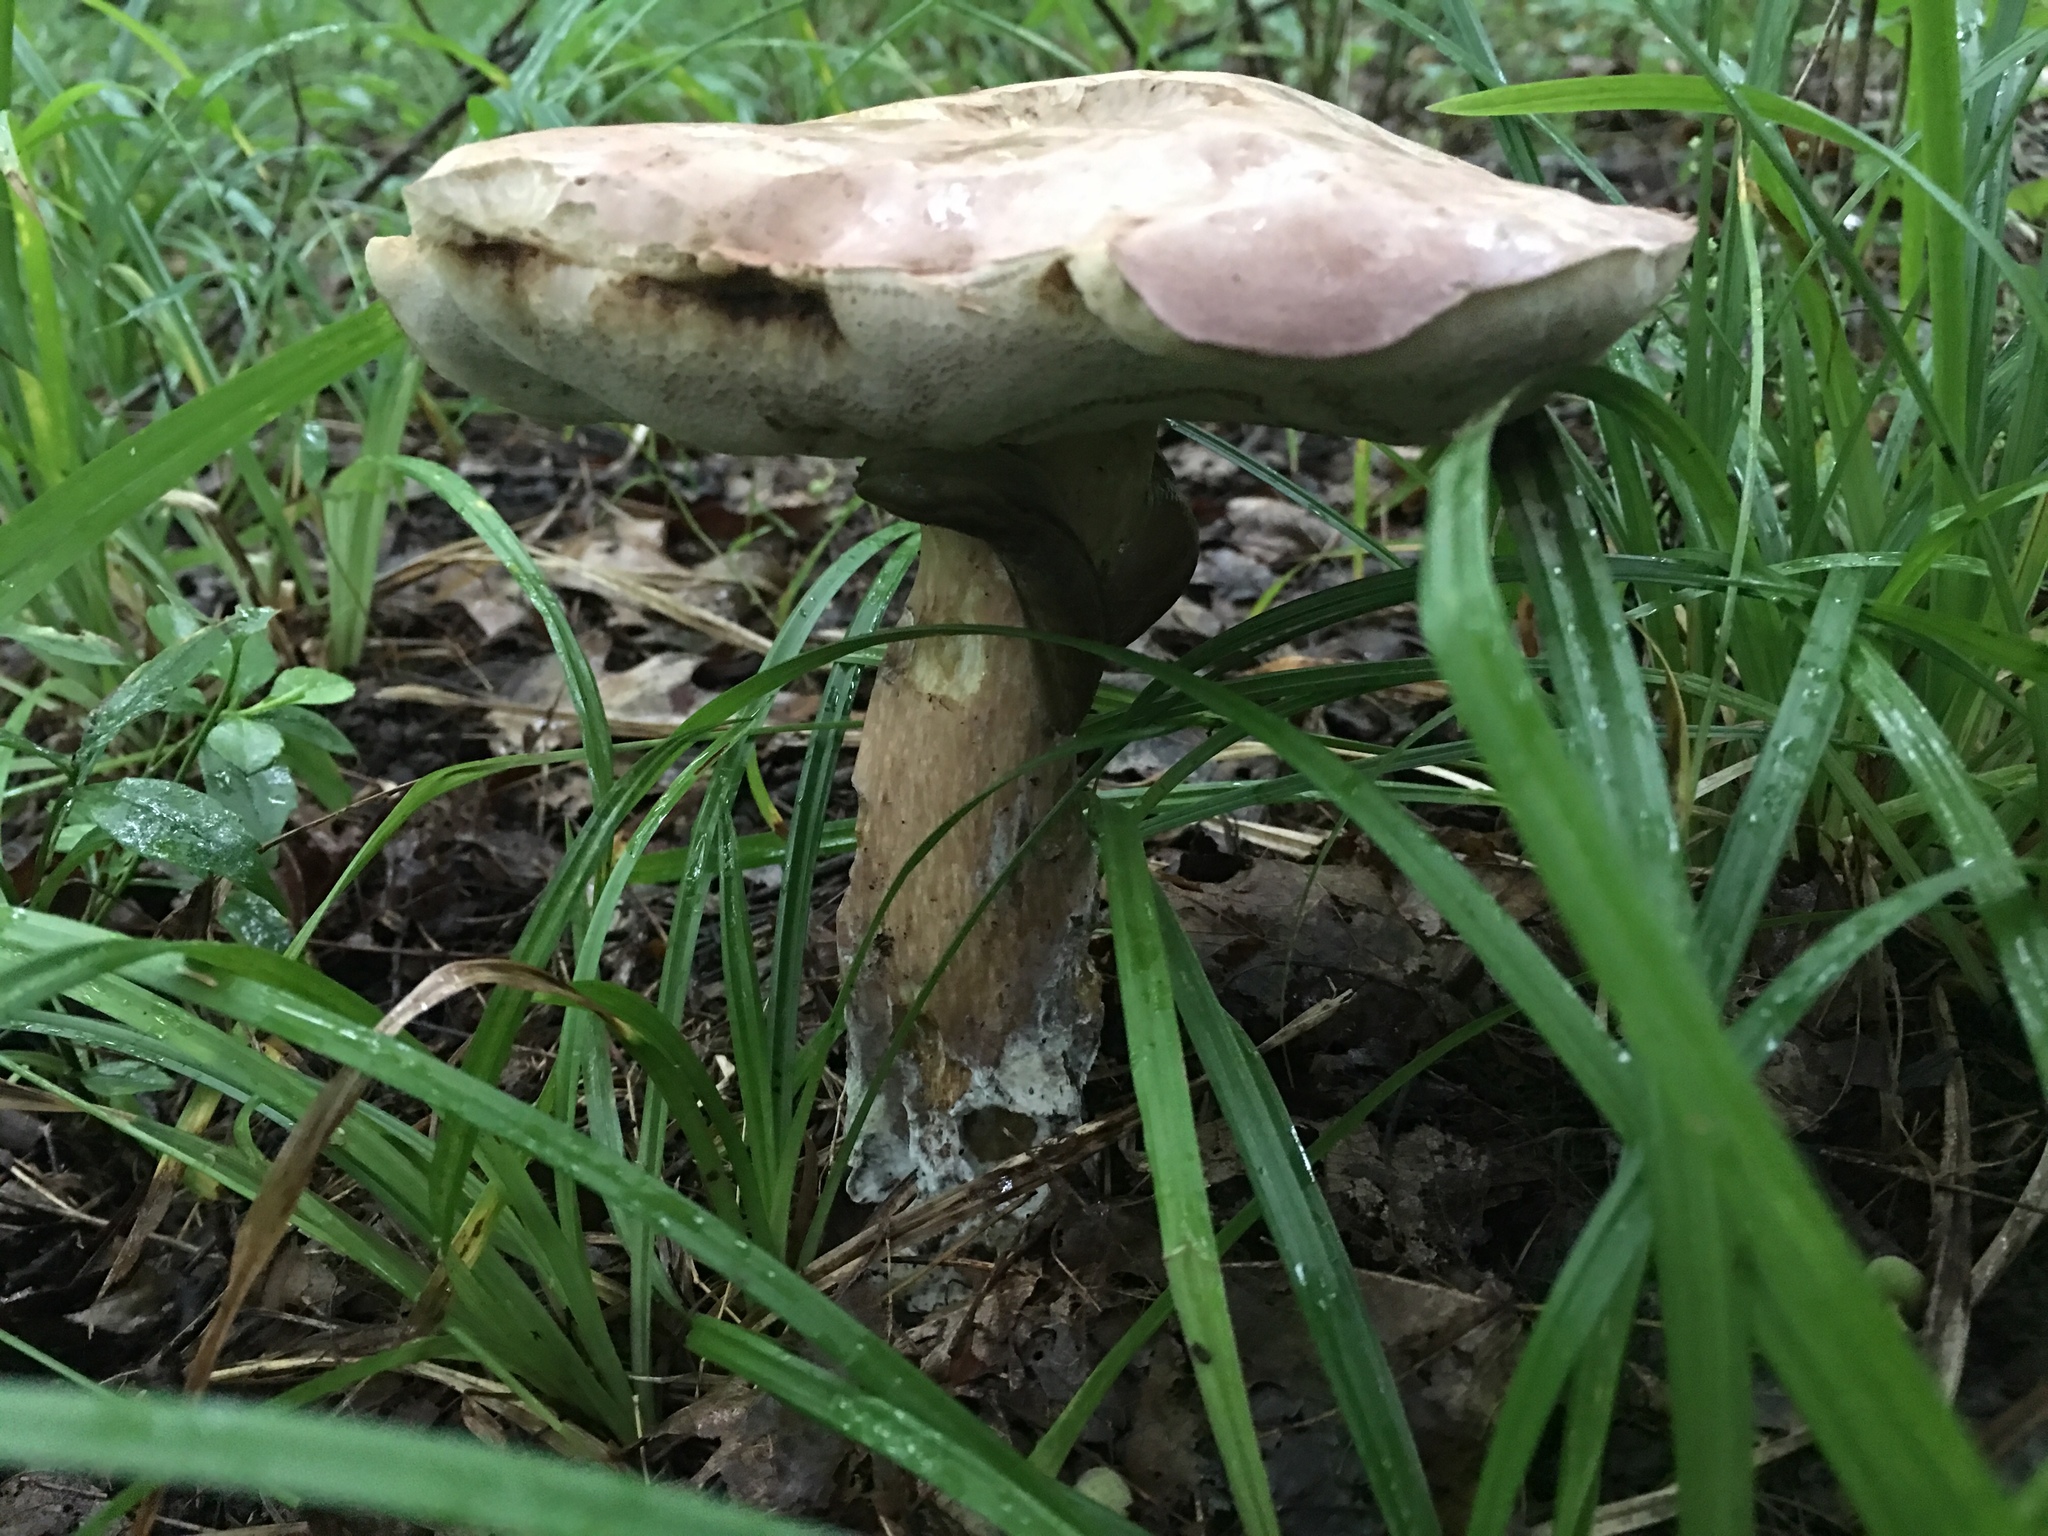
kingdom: Fungi
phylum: Basidiomycota
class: Agaricomycetes
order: Boletales
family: Boletaceae
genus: Tylopilus
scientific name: Tylopilus rubrobrunneus
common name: Reddish brown bitter bolete
